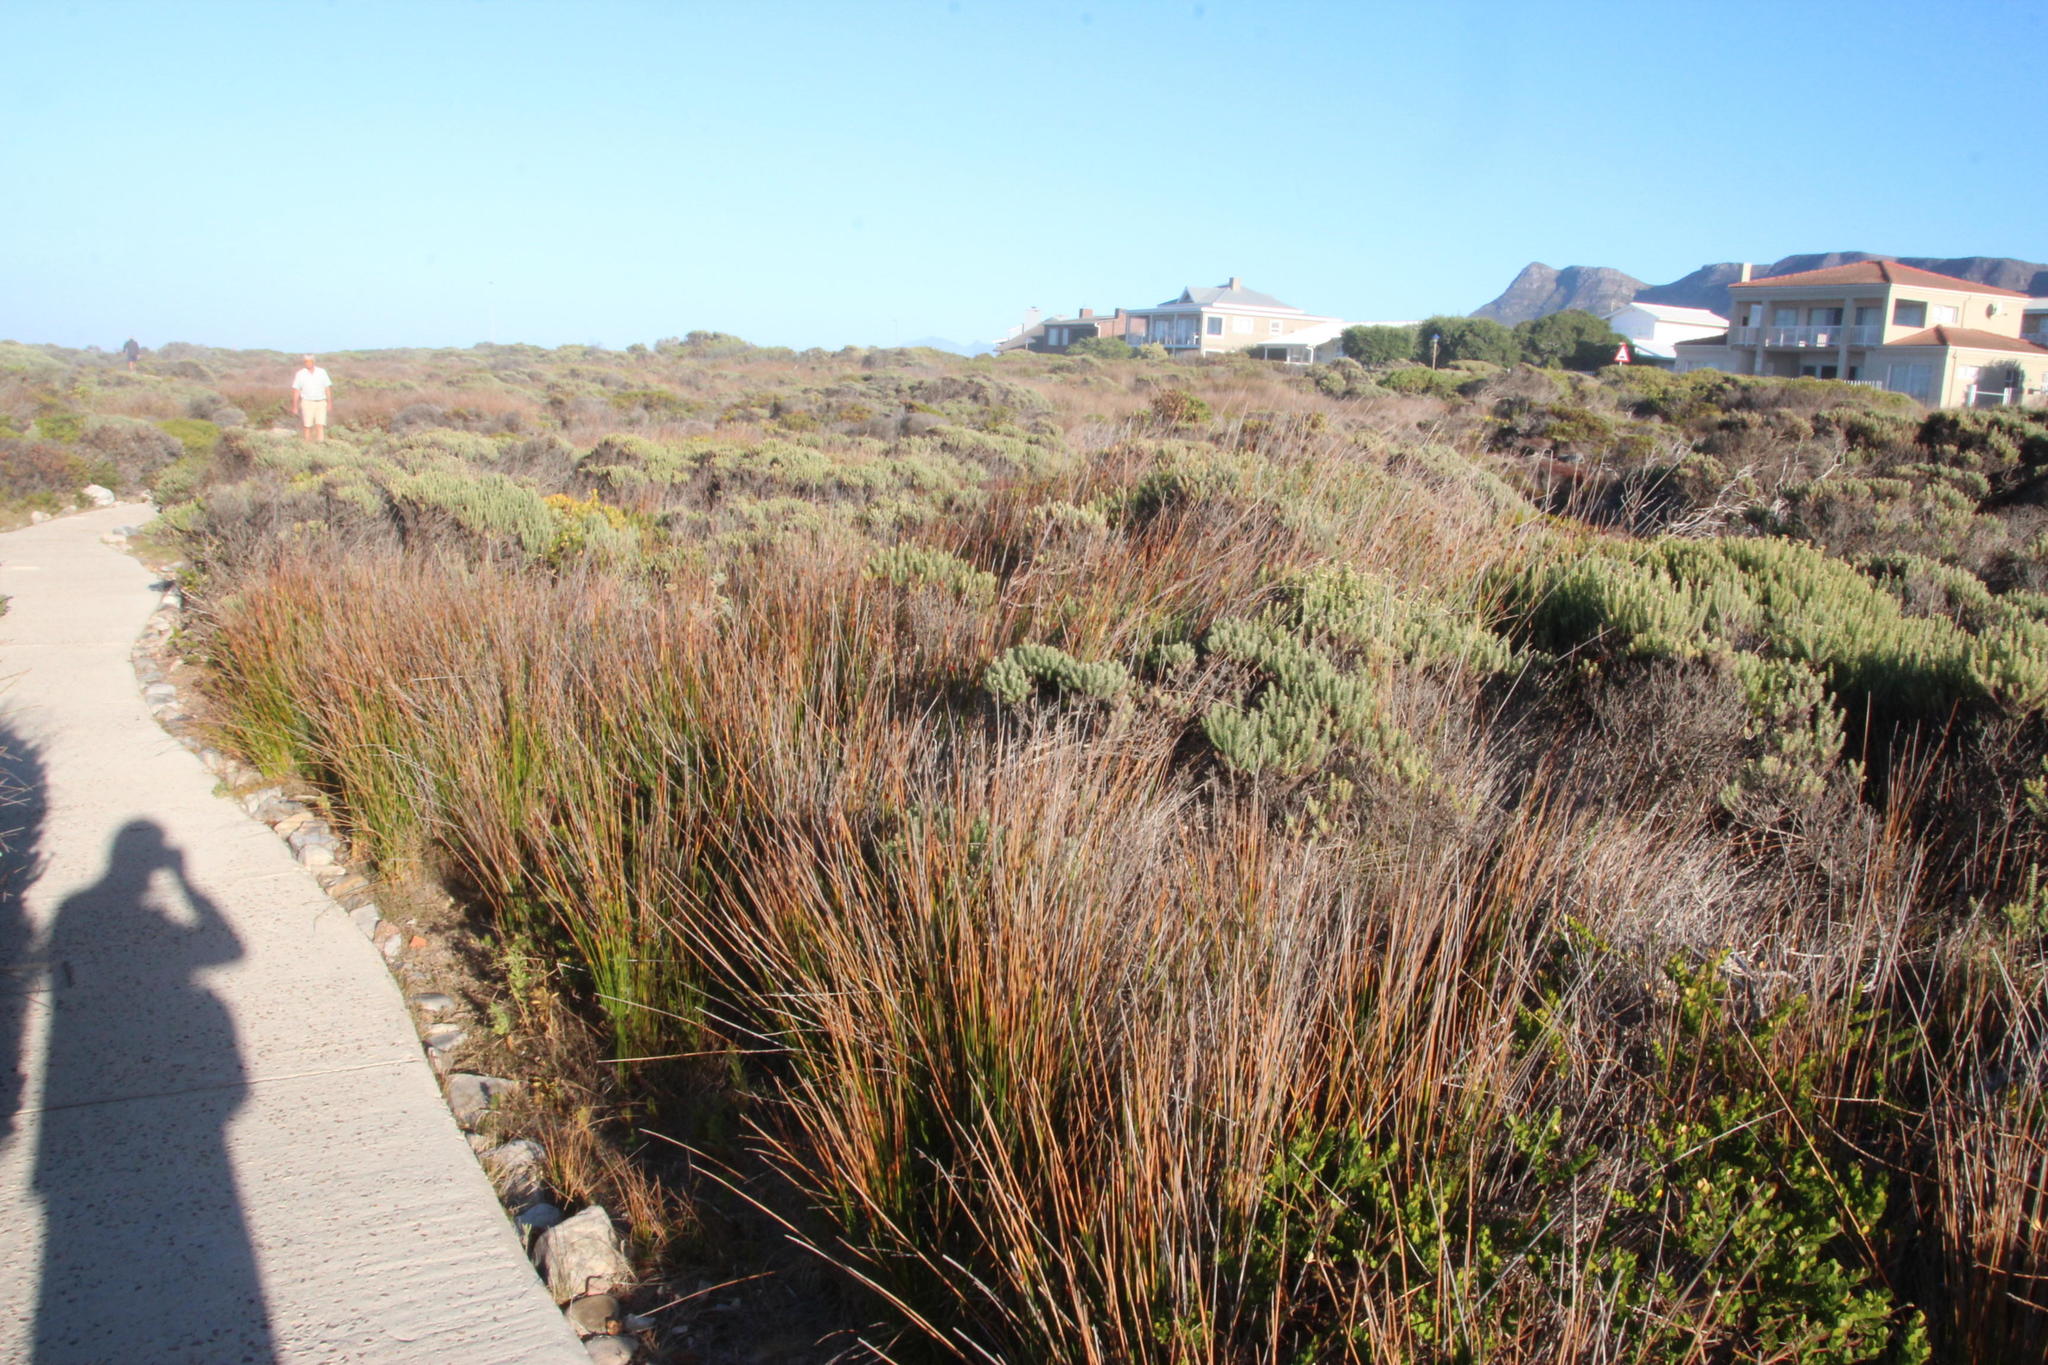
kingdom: Plantae
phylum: Tracheophyta
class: Liliopsida
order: Poales
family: Cyperaceae
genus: Ficinia
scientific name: Ficinia nodosa
